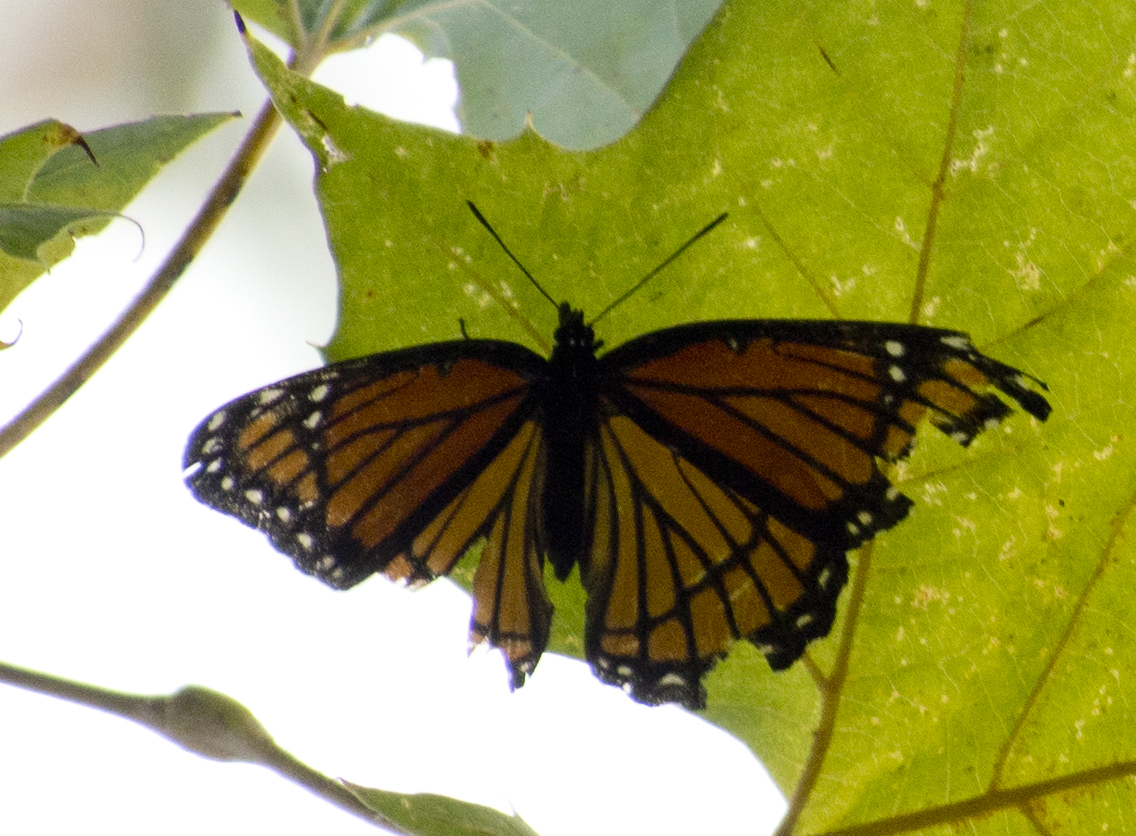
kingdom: Animalia
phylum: Arthropoda
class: Insecta
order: Lepidoptera
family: Nymphalidae
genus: Limenitis
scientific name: Limenitis archippus
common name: Viceroy
